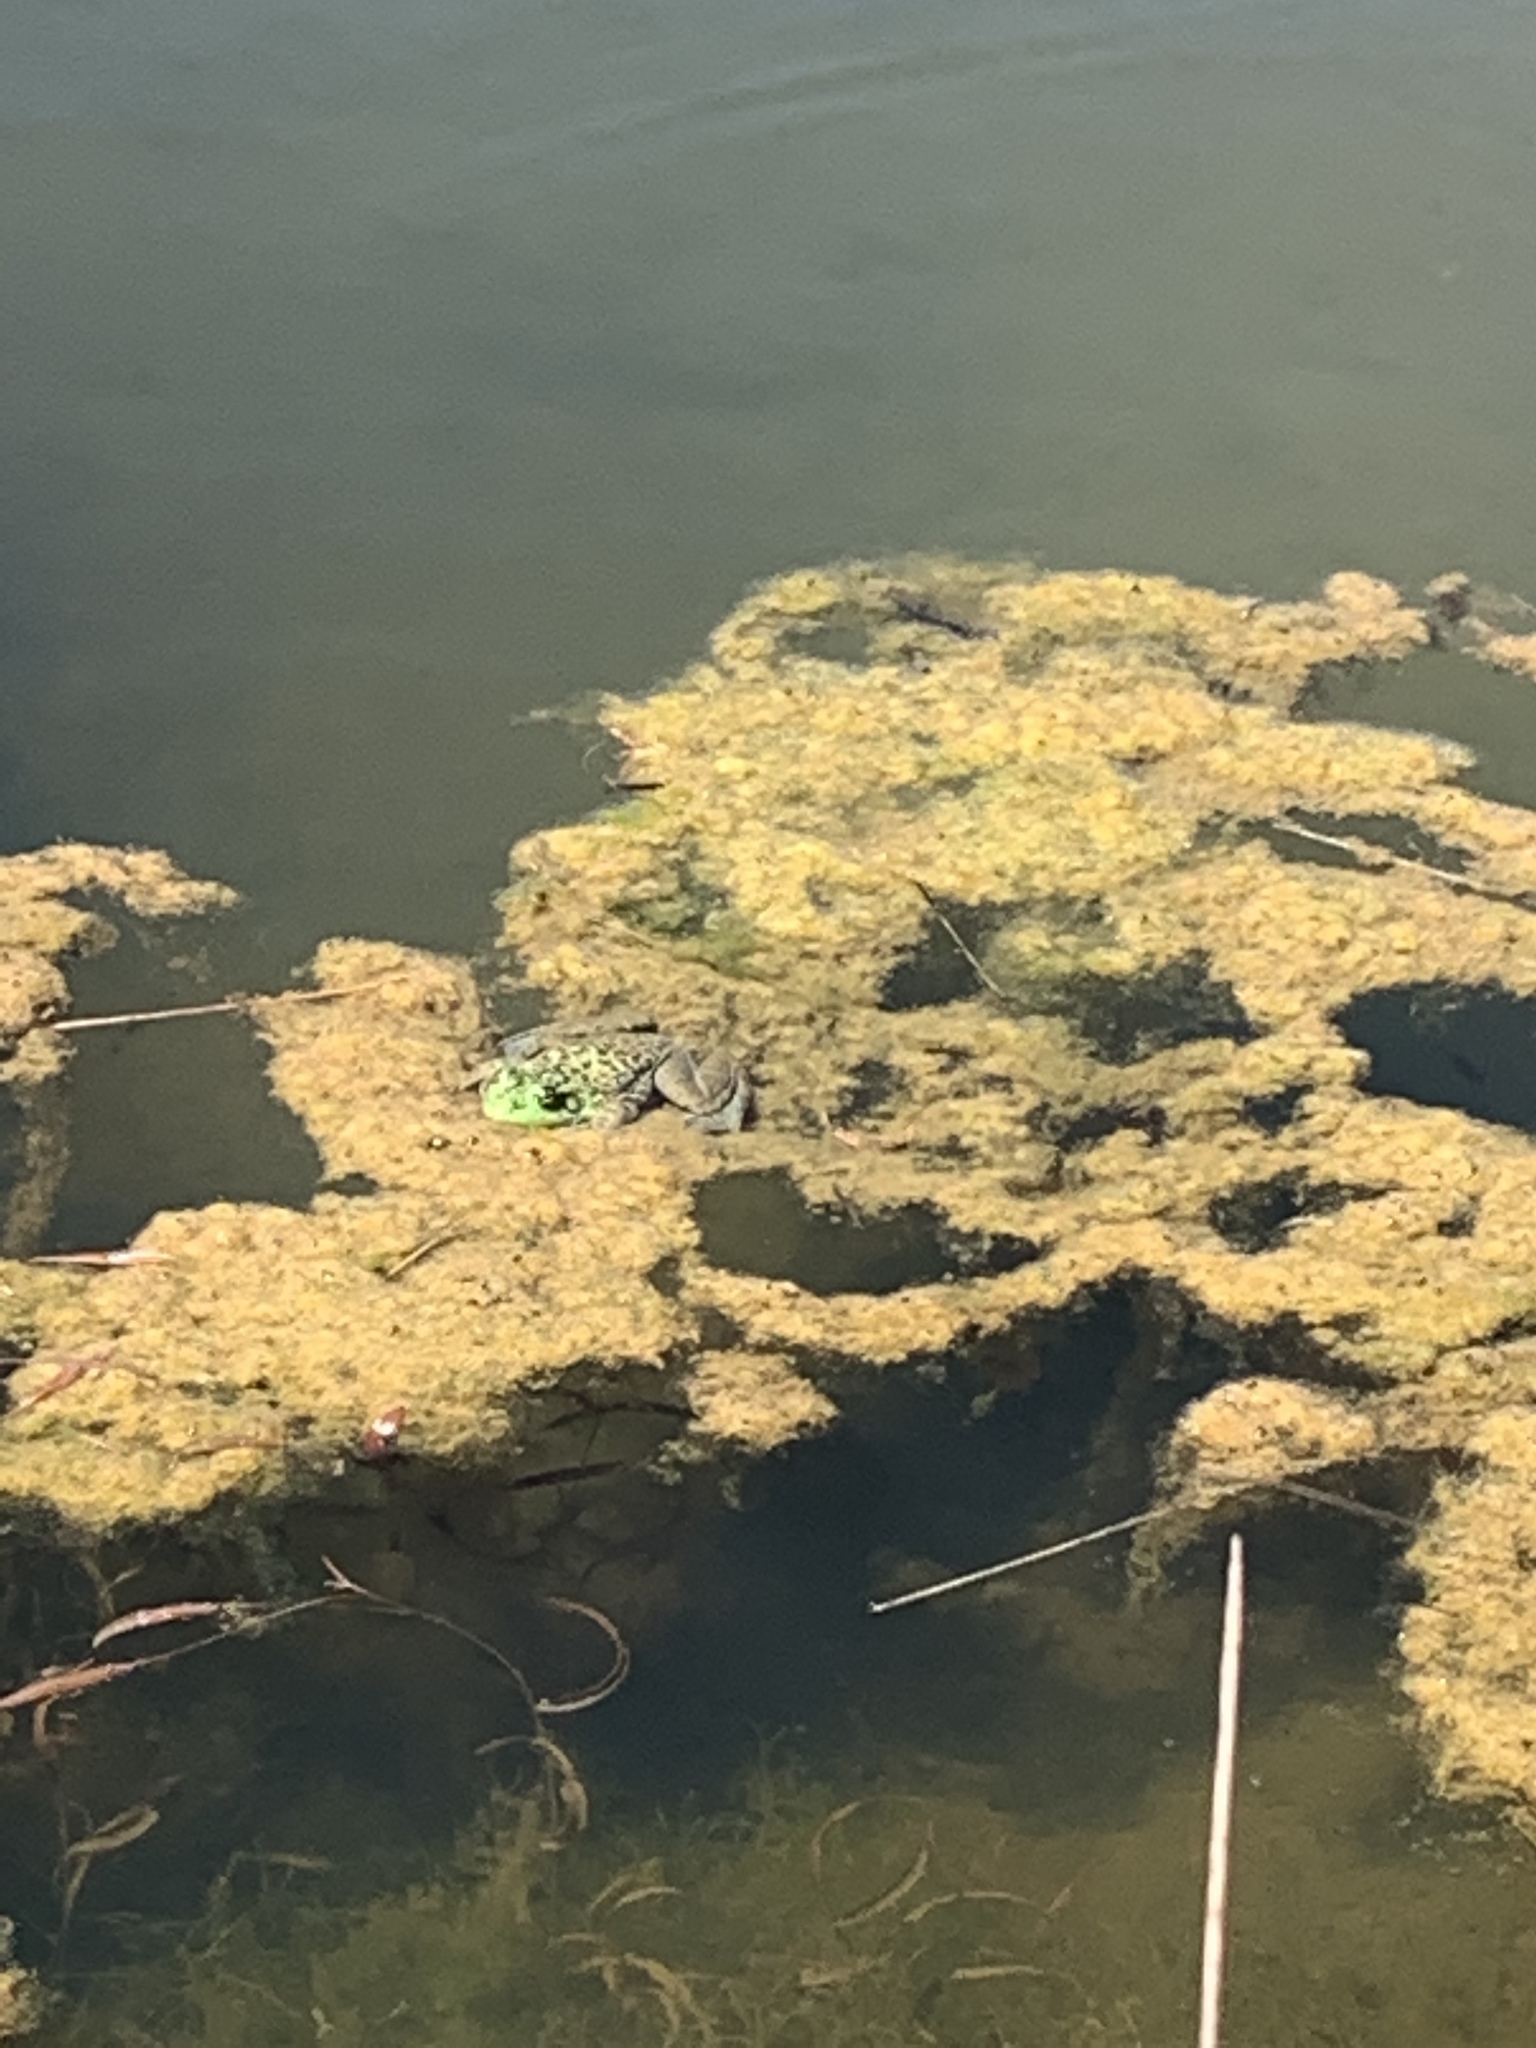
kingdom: Animalia
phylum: Chordata
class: Amphibia
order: Anura
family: Ranidae
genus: Lithobates
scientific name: Lithobates catesbeianus
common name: American bullfrog
